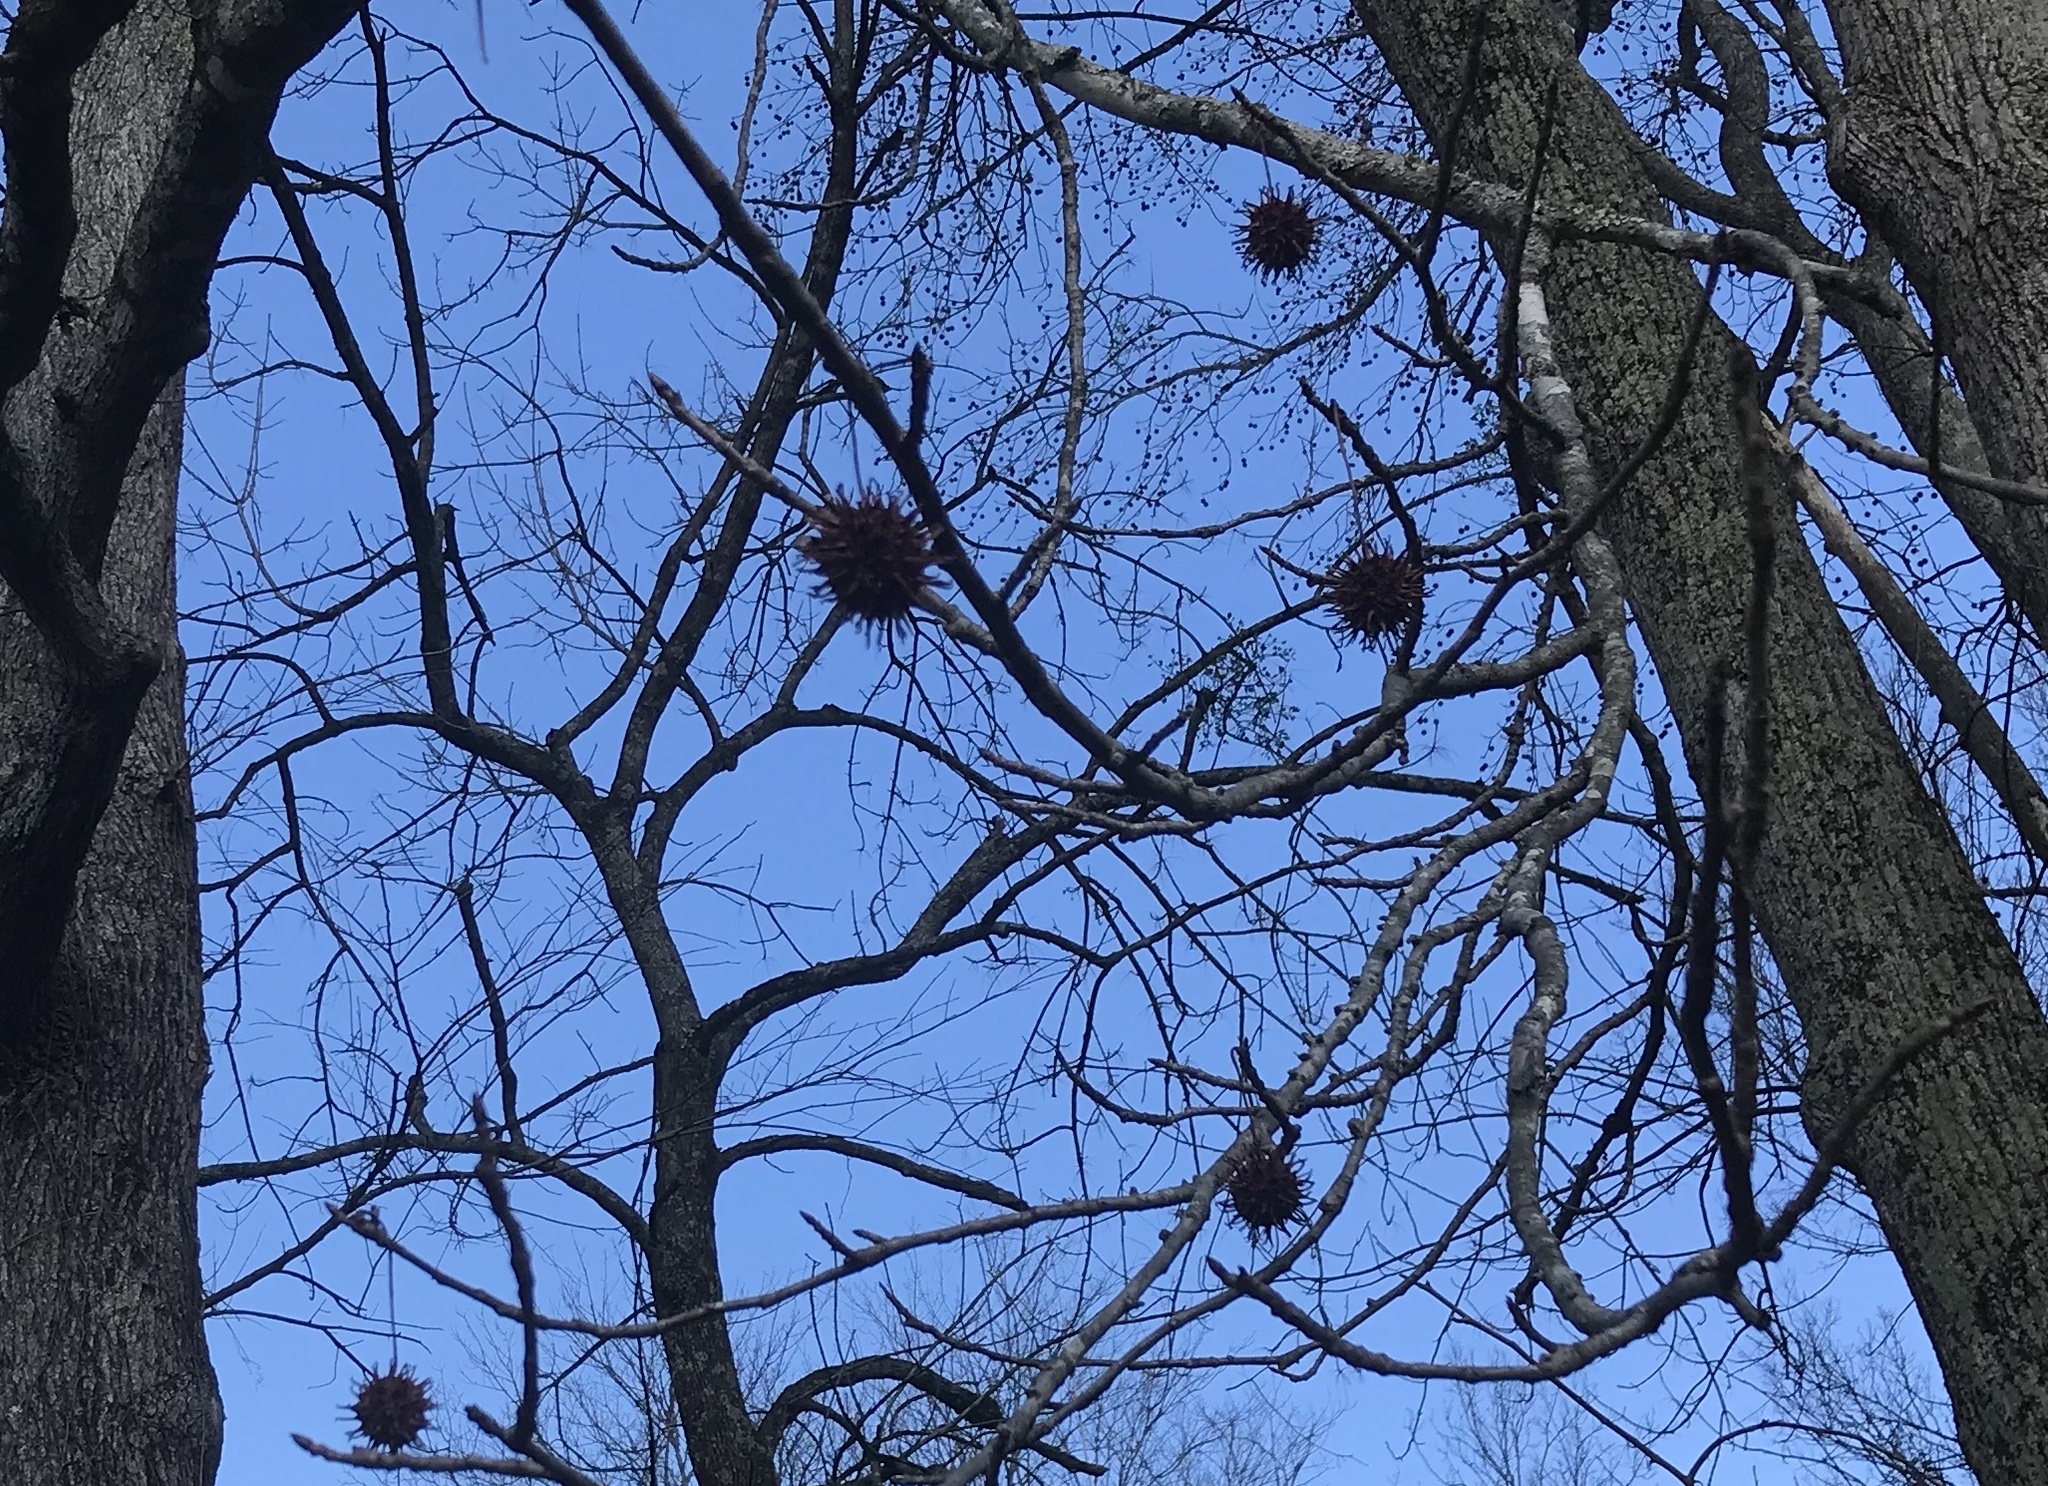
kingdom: Plantae
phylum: Tracheophyta
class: Magnoliopsida
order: Saxifragales
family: Altingiaceae
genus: Liquidambar
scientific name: Liquidambar styraciflua
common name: Sweet gum
